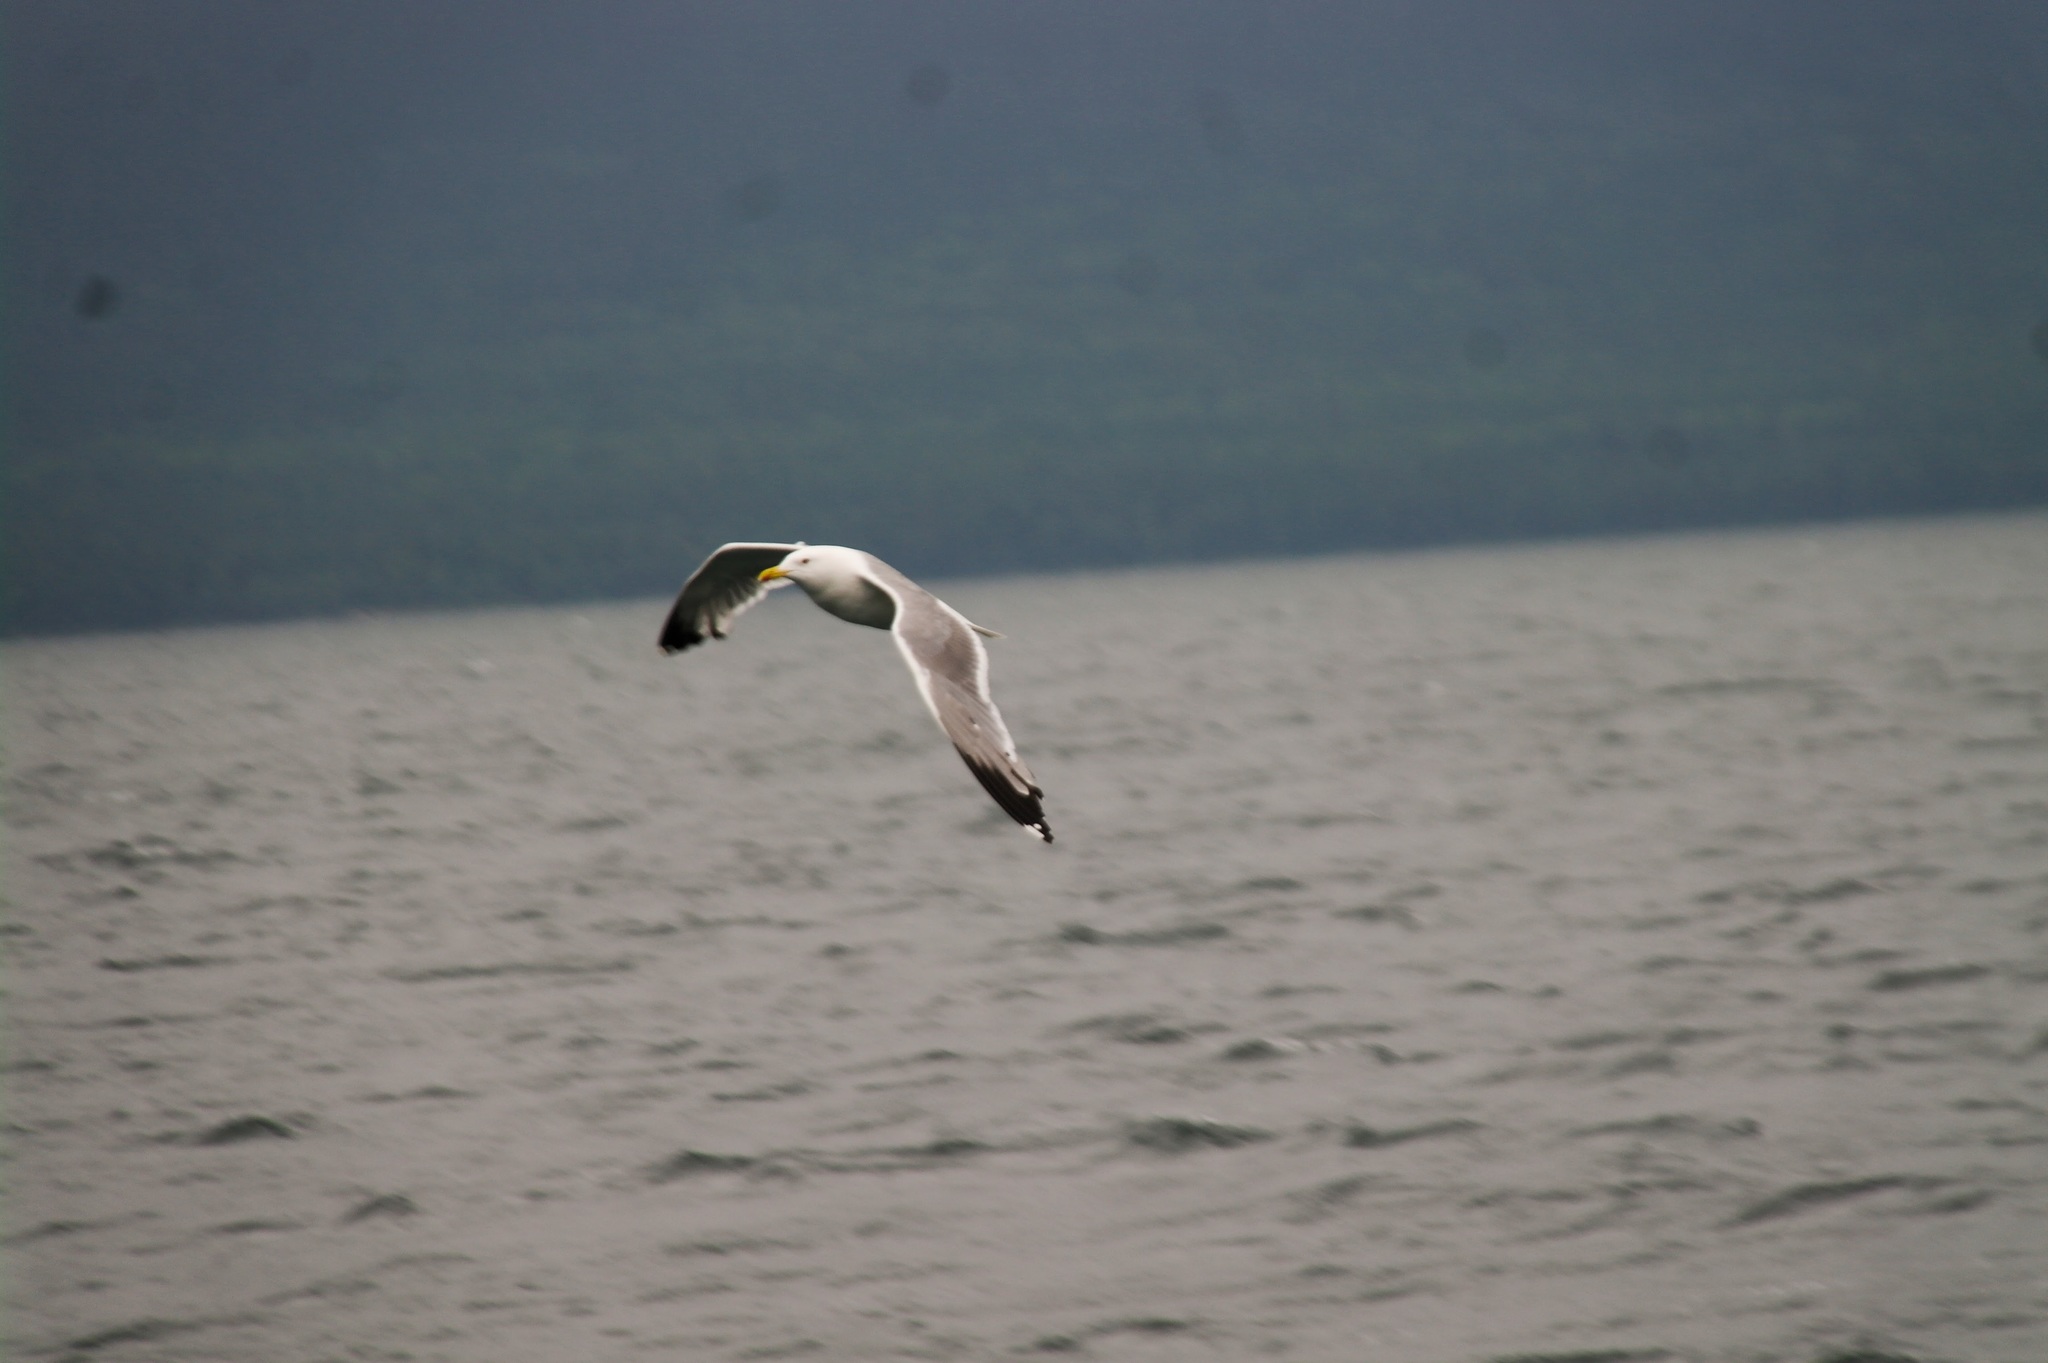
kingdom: Animalia
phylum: Chordata
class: Aves
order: Charadriiformes
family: Laridae
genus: Larus
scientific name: Larus argentatus
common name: Herring gull
